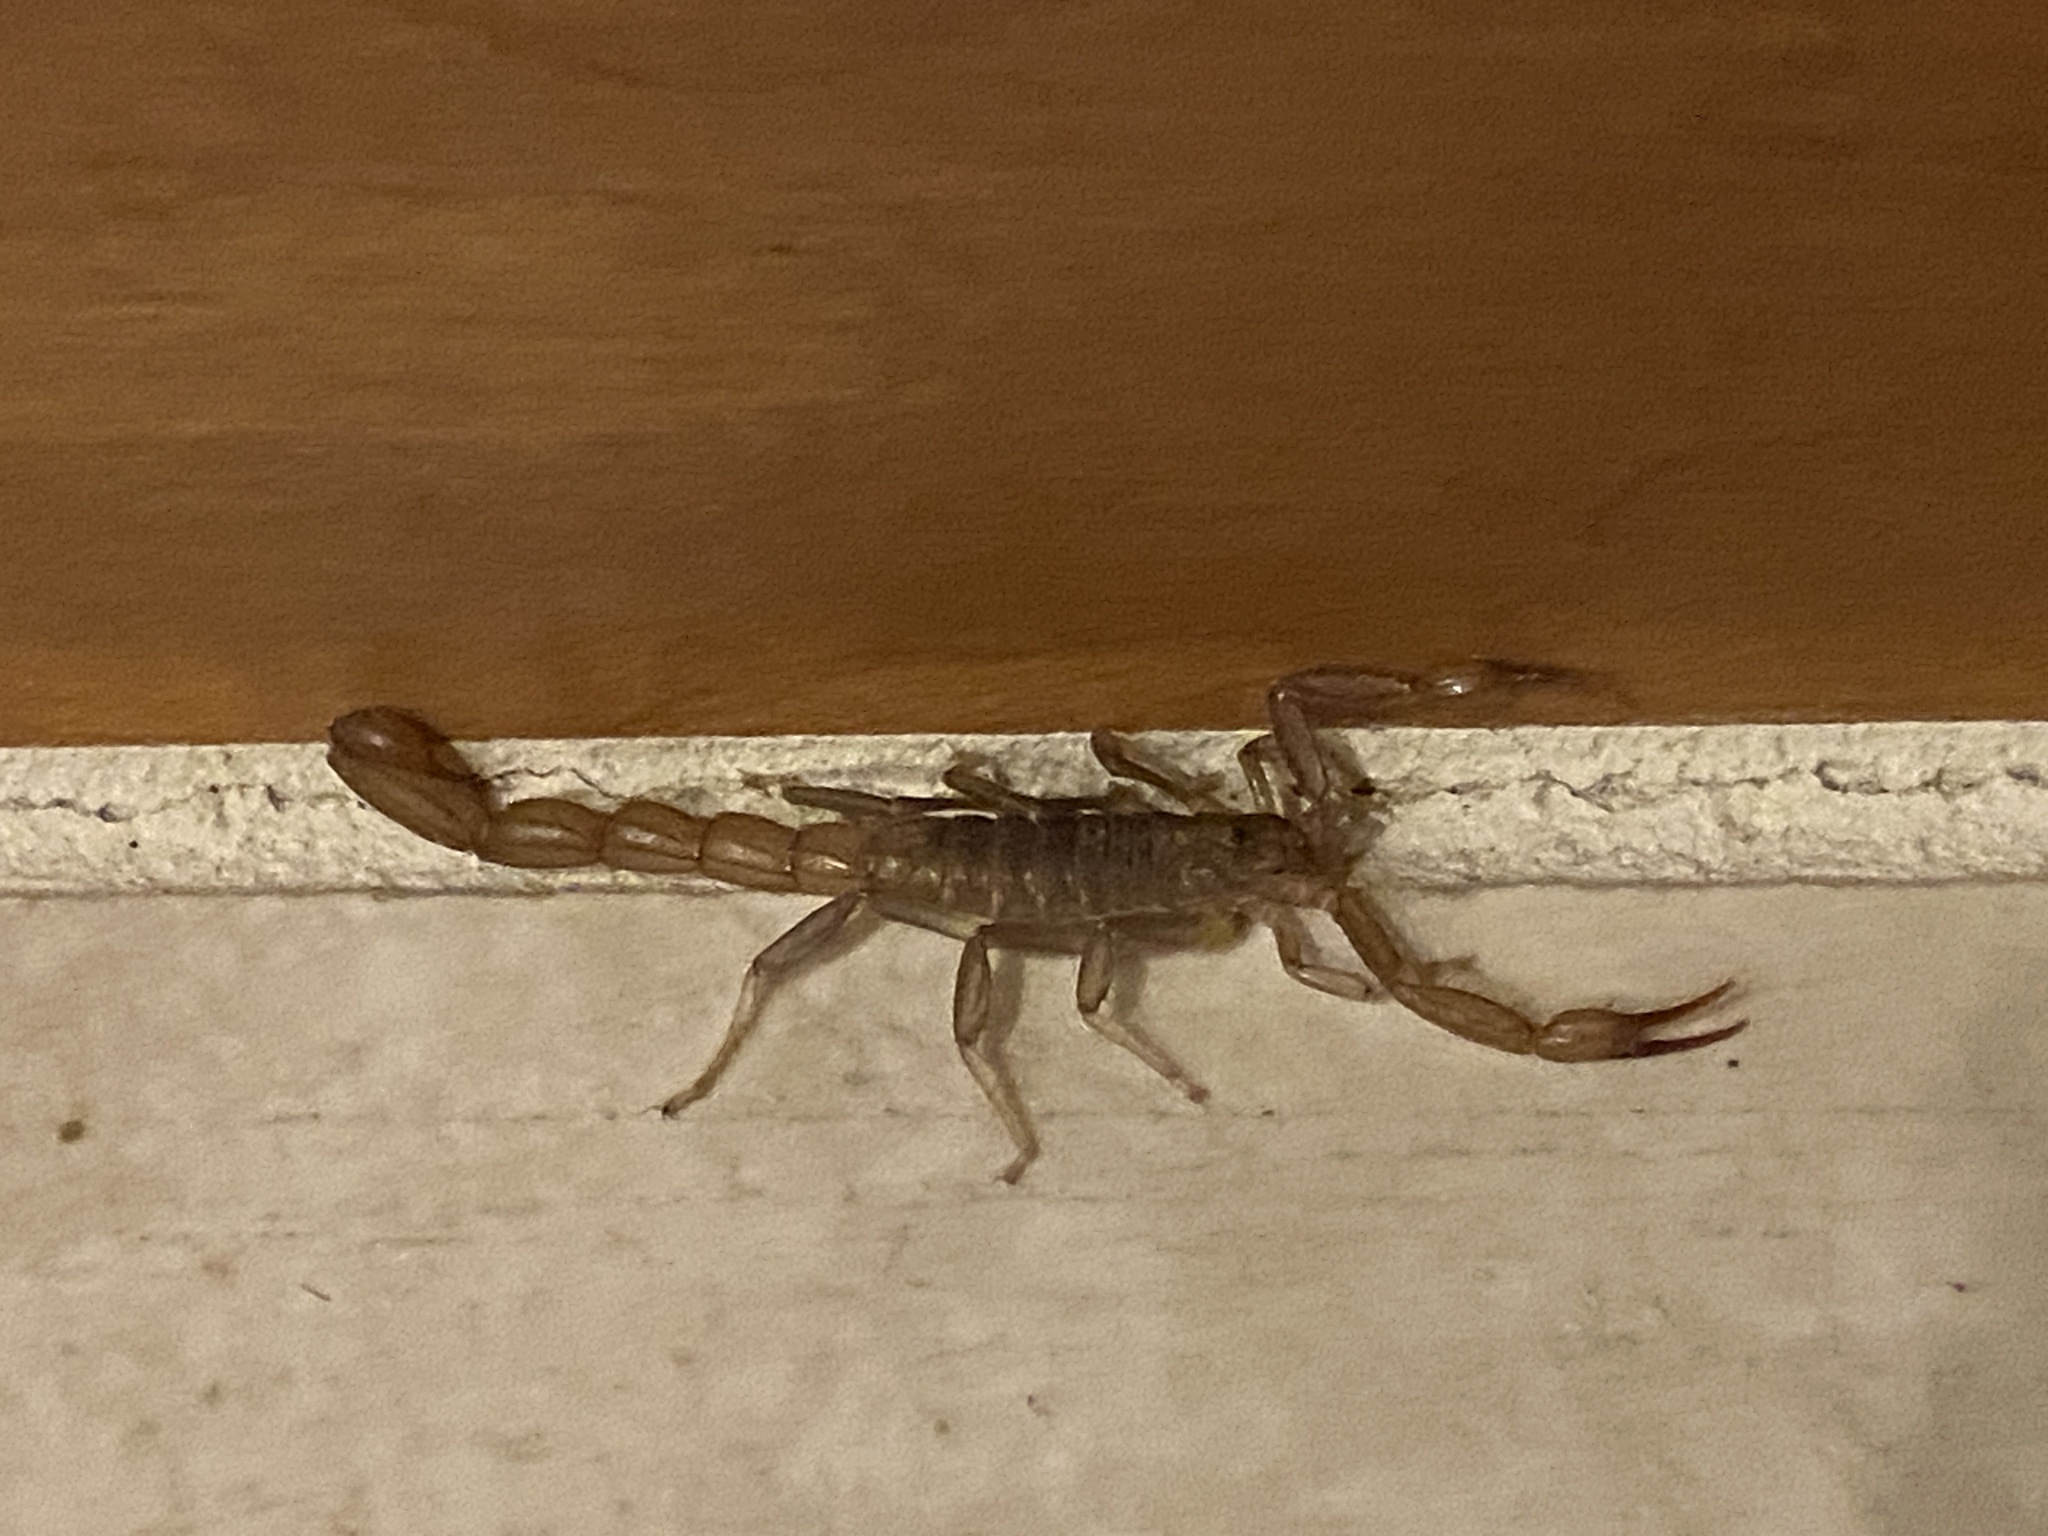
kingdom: Animalia
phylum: Arthropoda
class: Arachnida
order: Scorpiones
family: Vaejovidae
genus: Paravaejovis
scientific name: Paravaejovis puritanus
